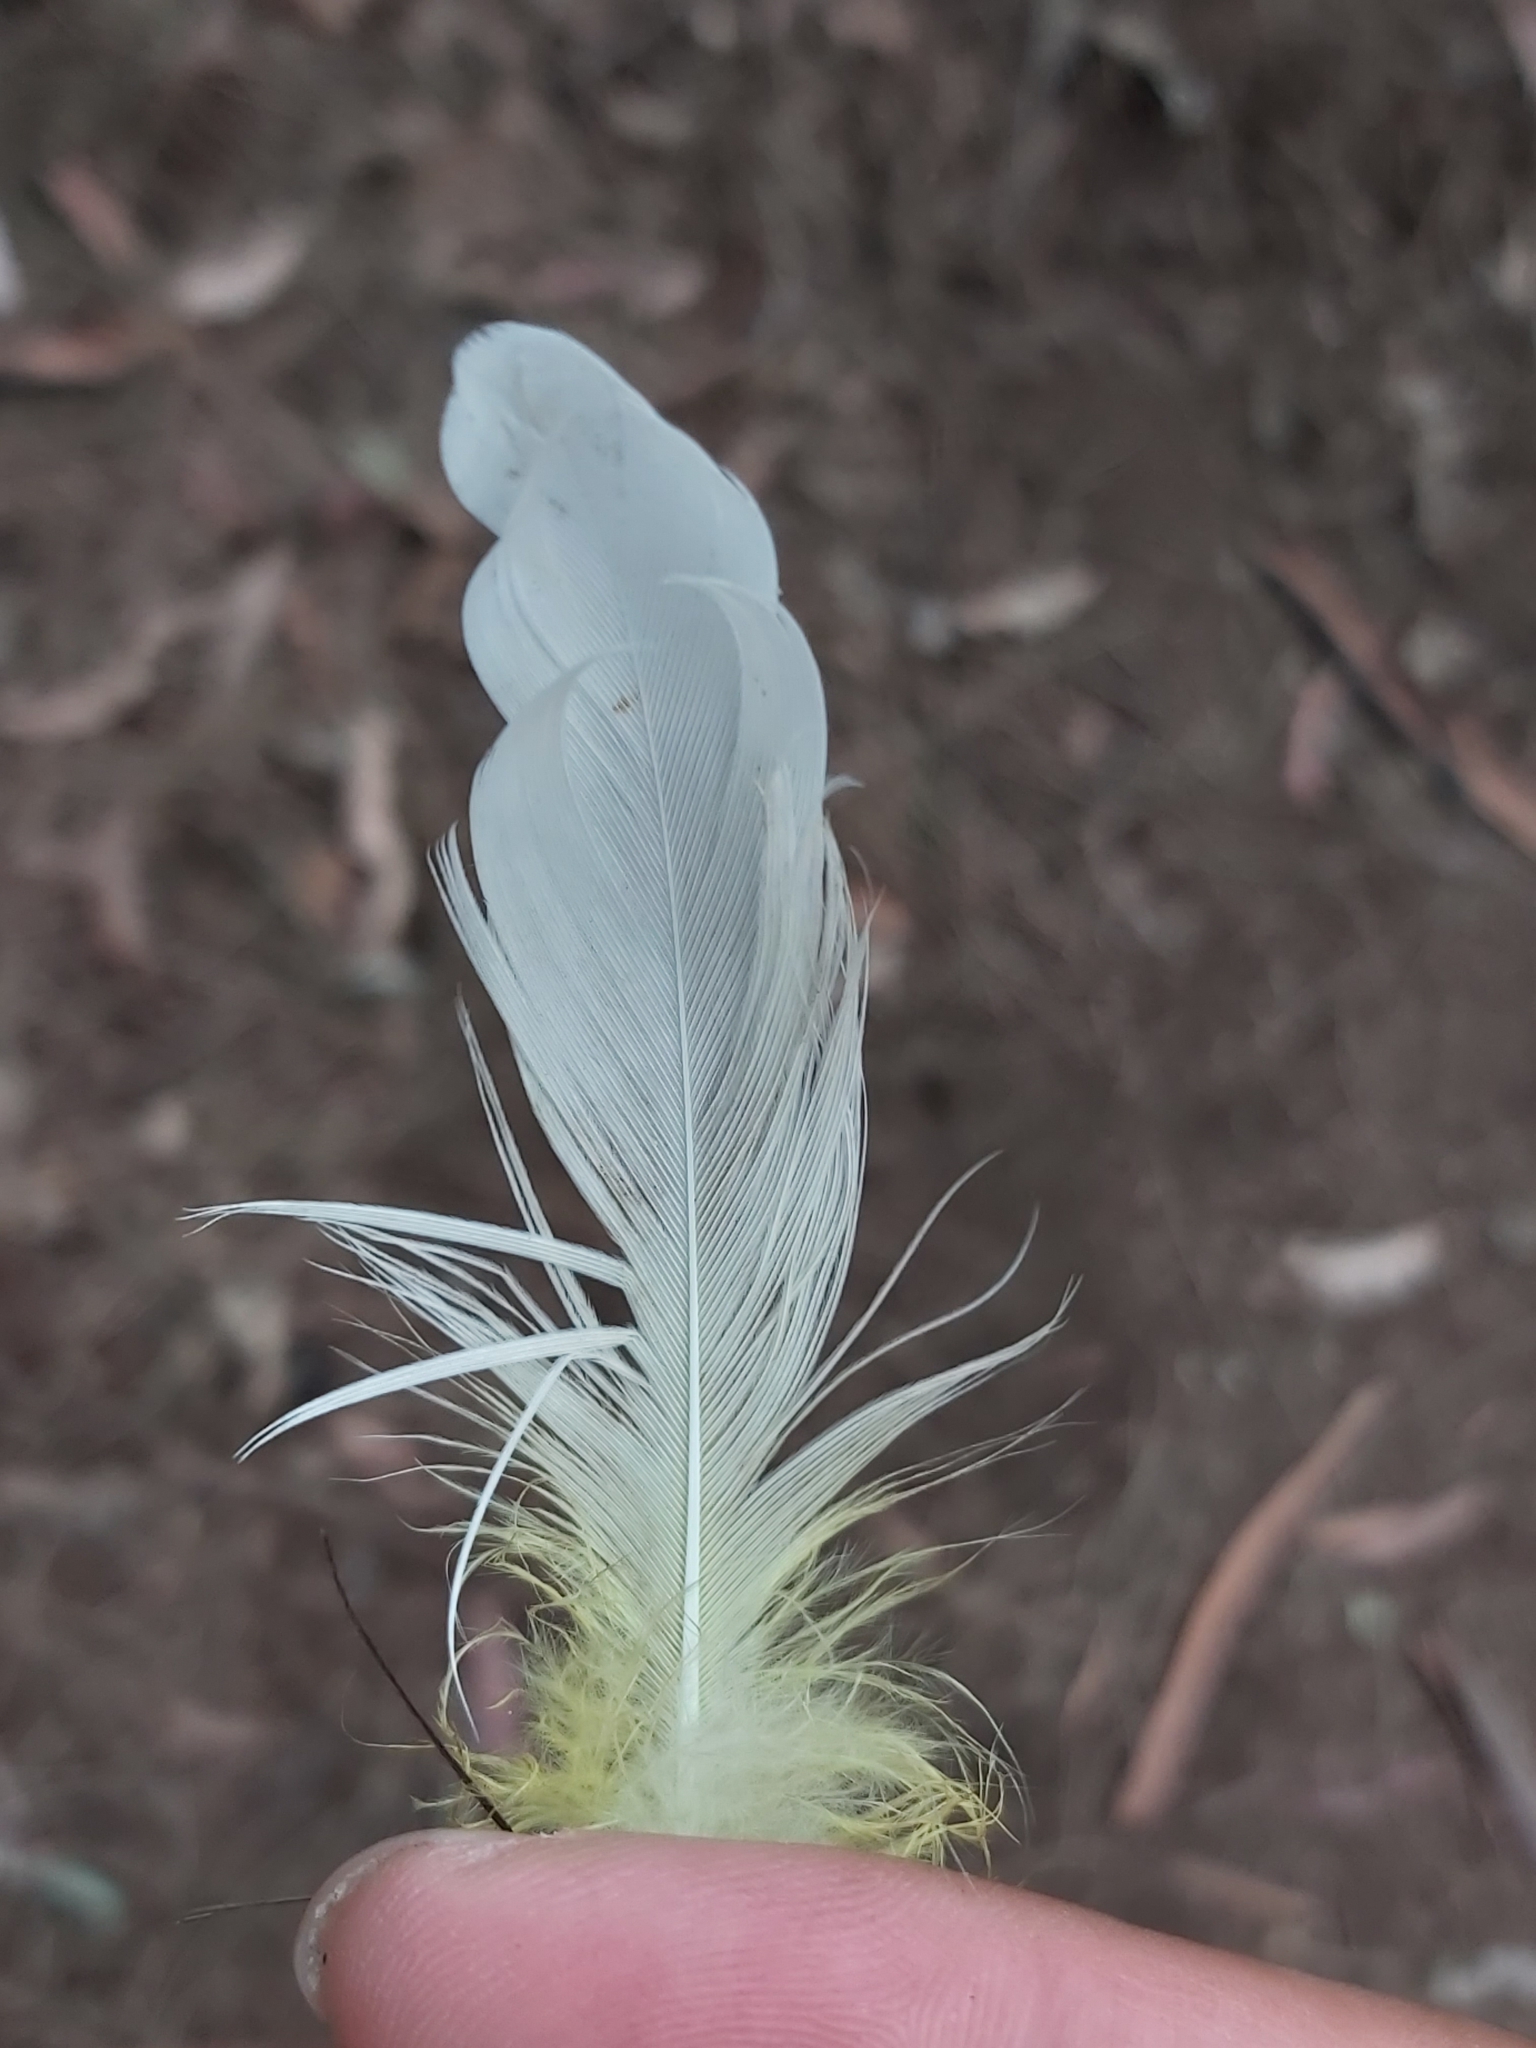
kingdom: Animalia
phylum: Chordata
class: Aves
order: Psittaciformes
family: Psittacidae
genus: Cacatua
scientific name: Cacatua galerita
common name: Sulphur-crested cockatoo
